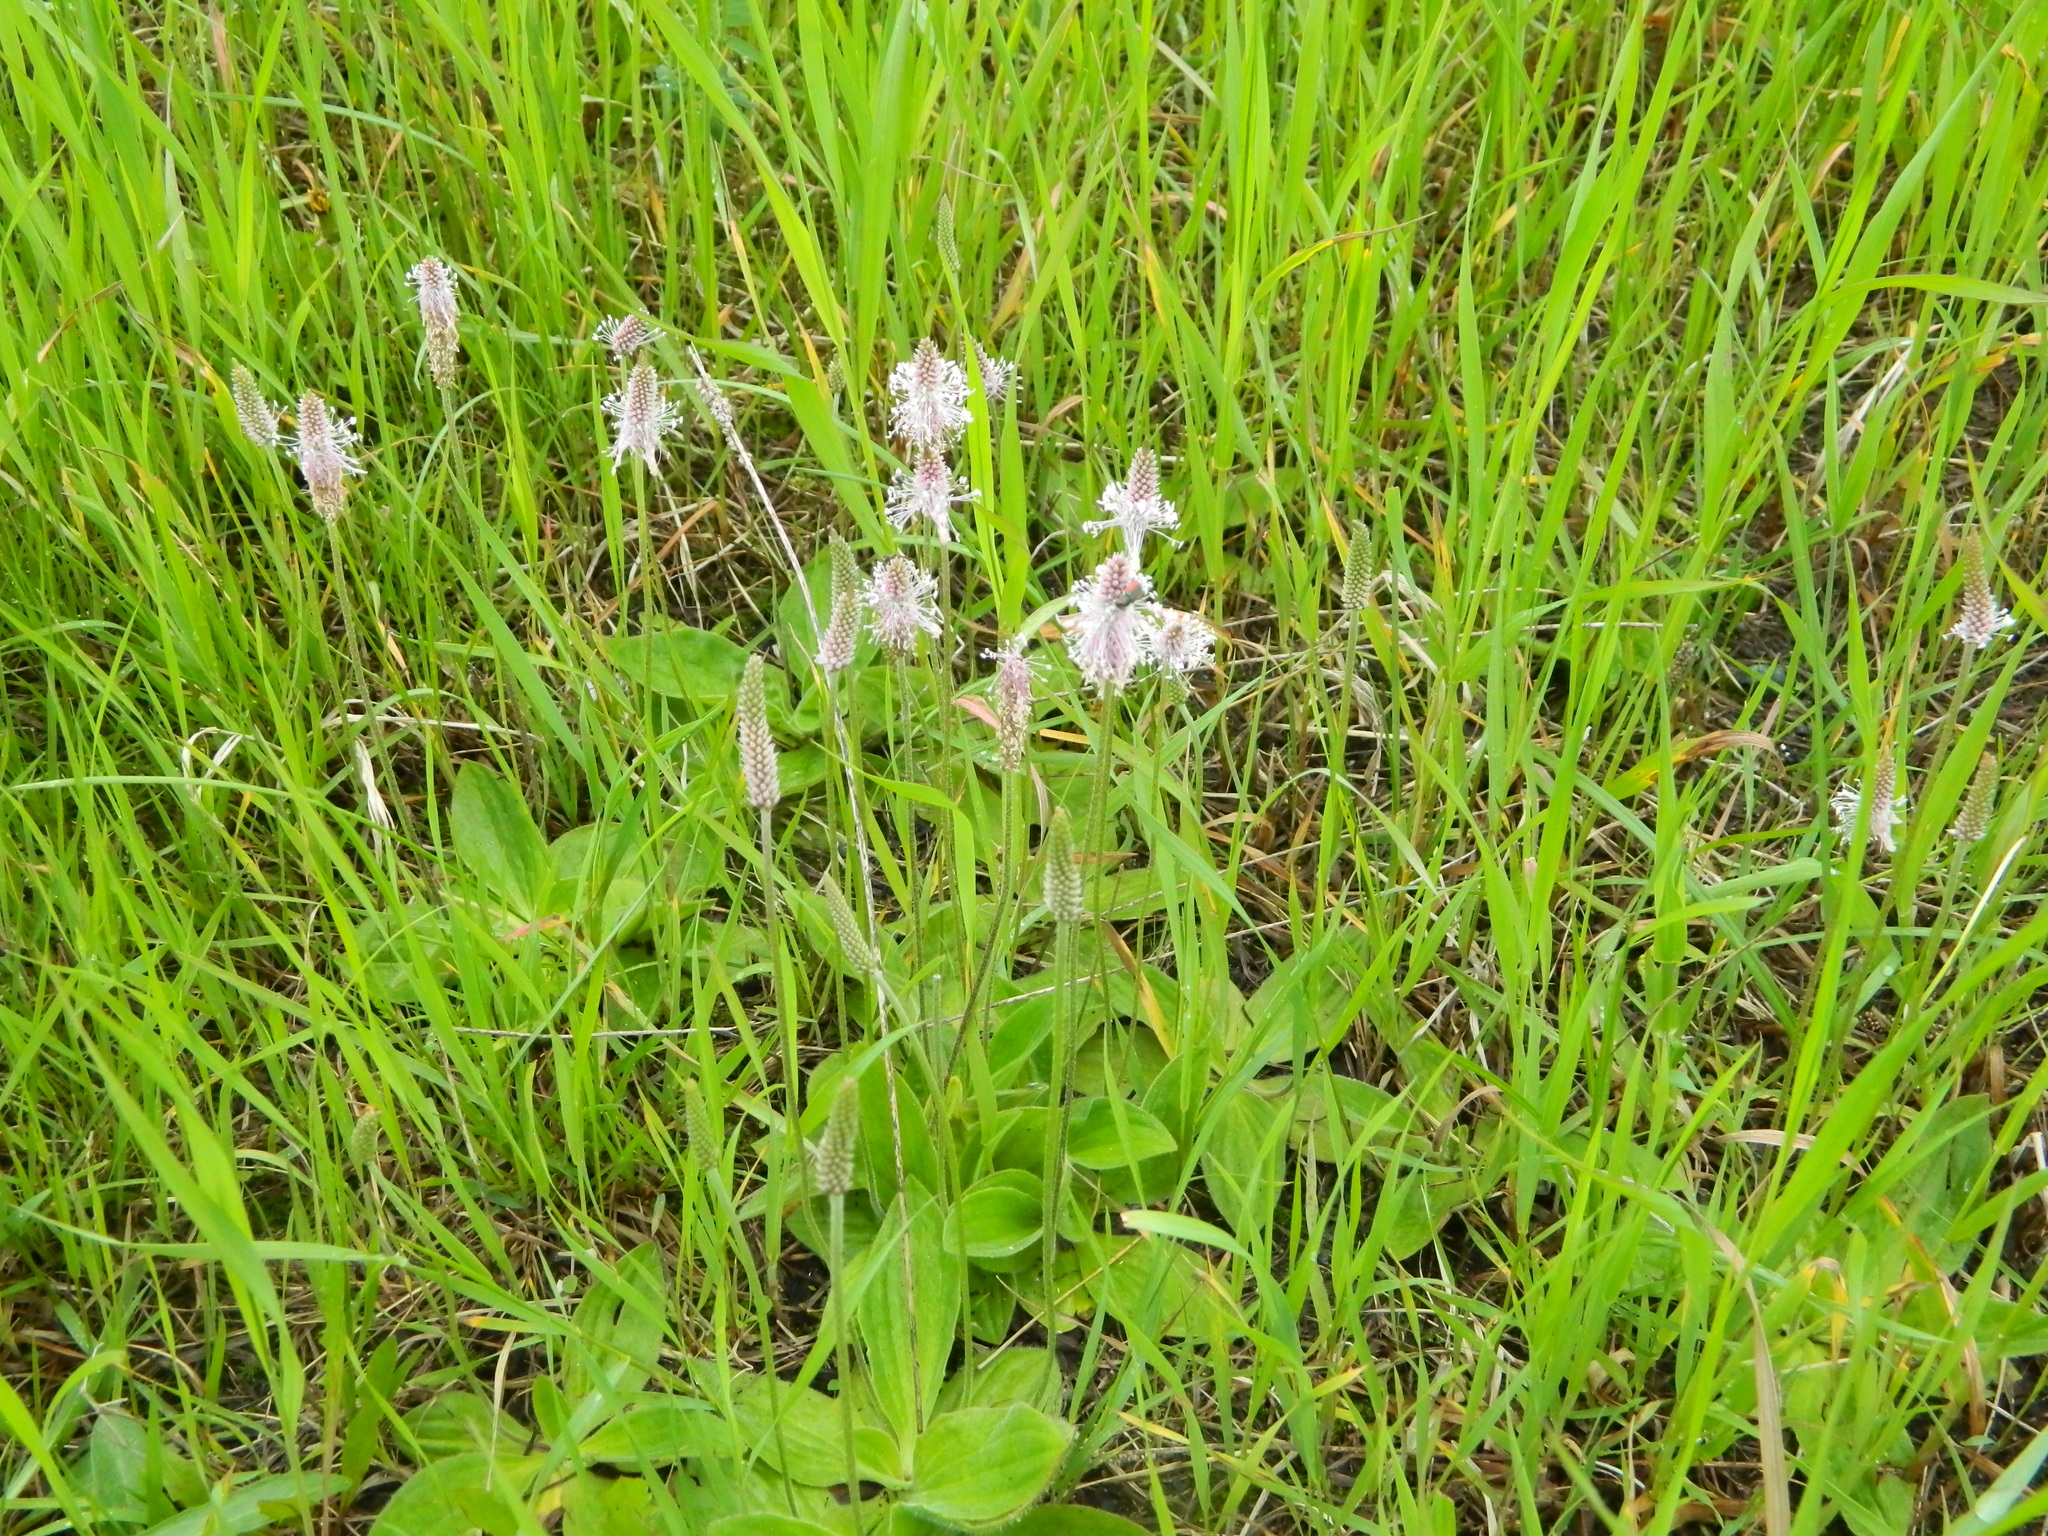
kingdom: Plantae
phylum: Tracheophyta
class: Magnoliopsida
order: Lamiales
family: Plantaginaceae
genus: Plantago
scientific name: Plantago media
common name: Hoary plantain
